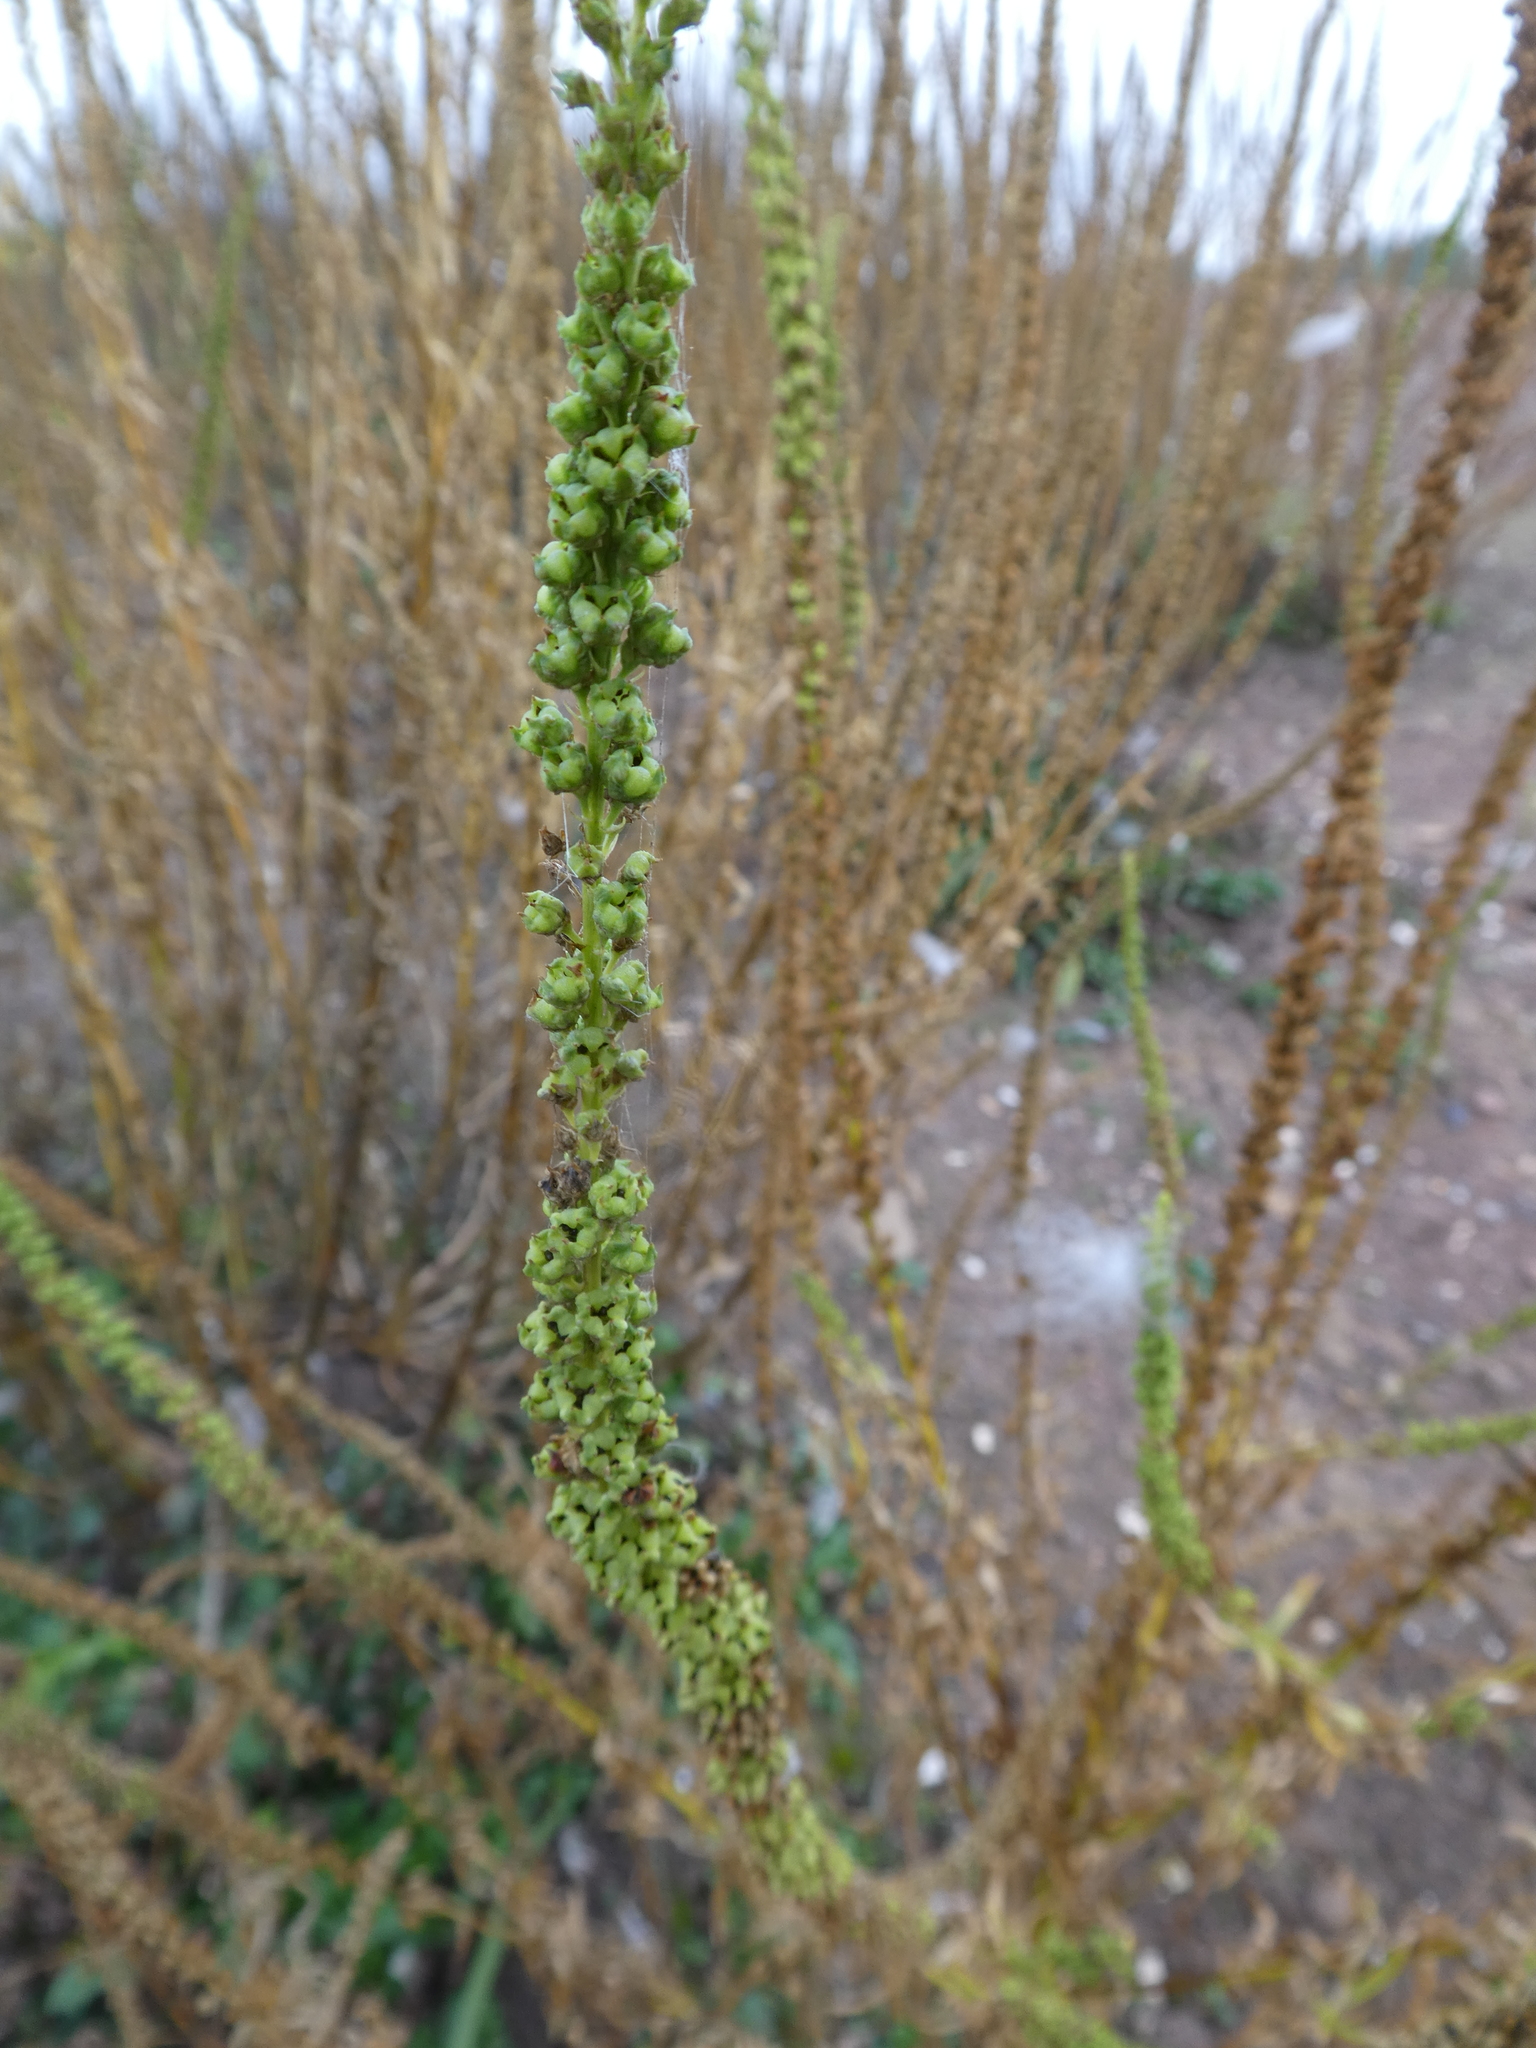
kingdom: Plantae
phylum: Tracheophyta
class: Magnoliopsida
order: Brassicales
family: Resedaceae
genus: Reseda
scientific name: Reseda luteola
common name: Weld
